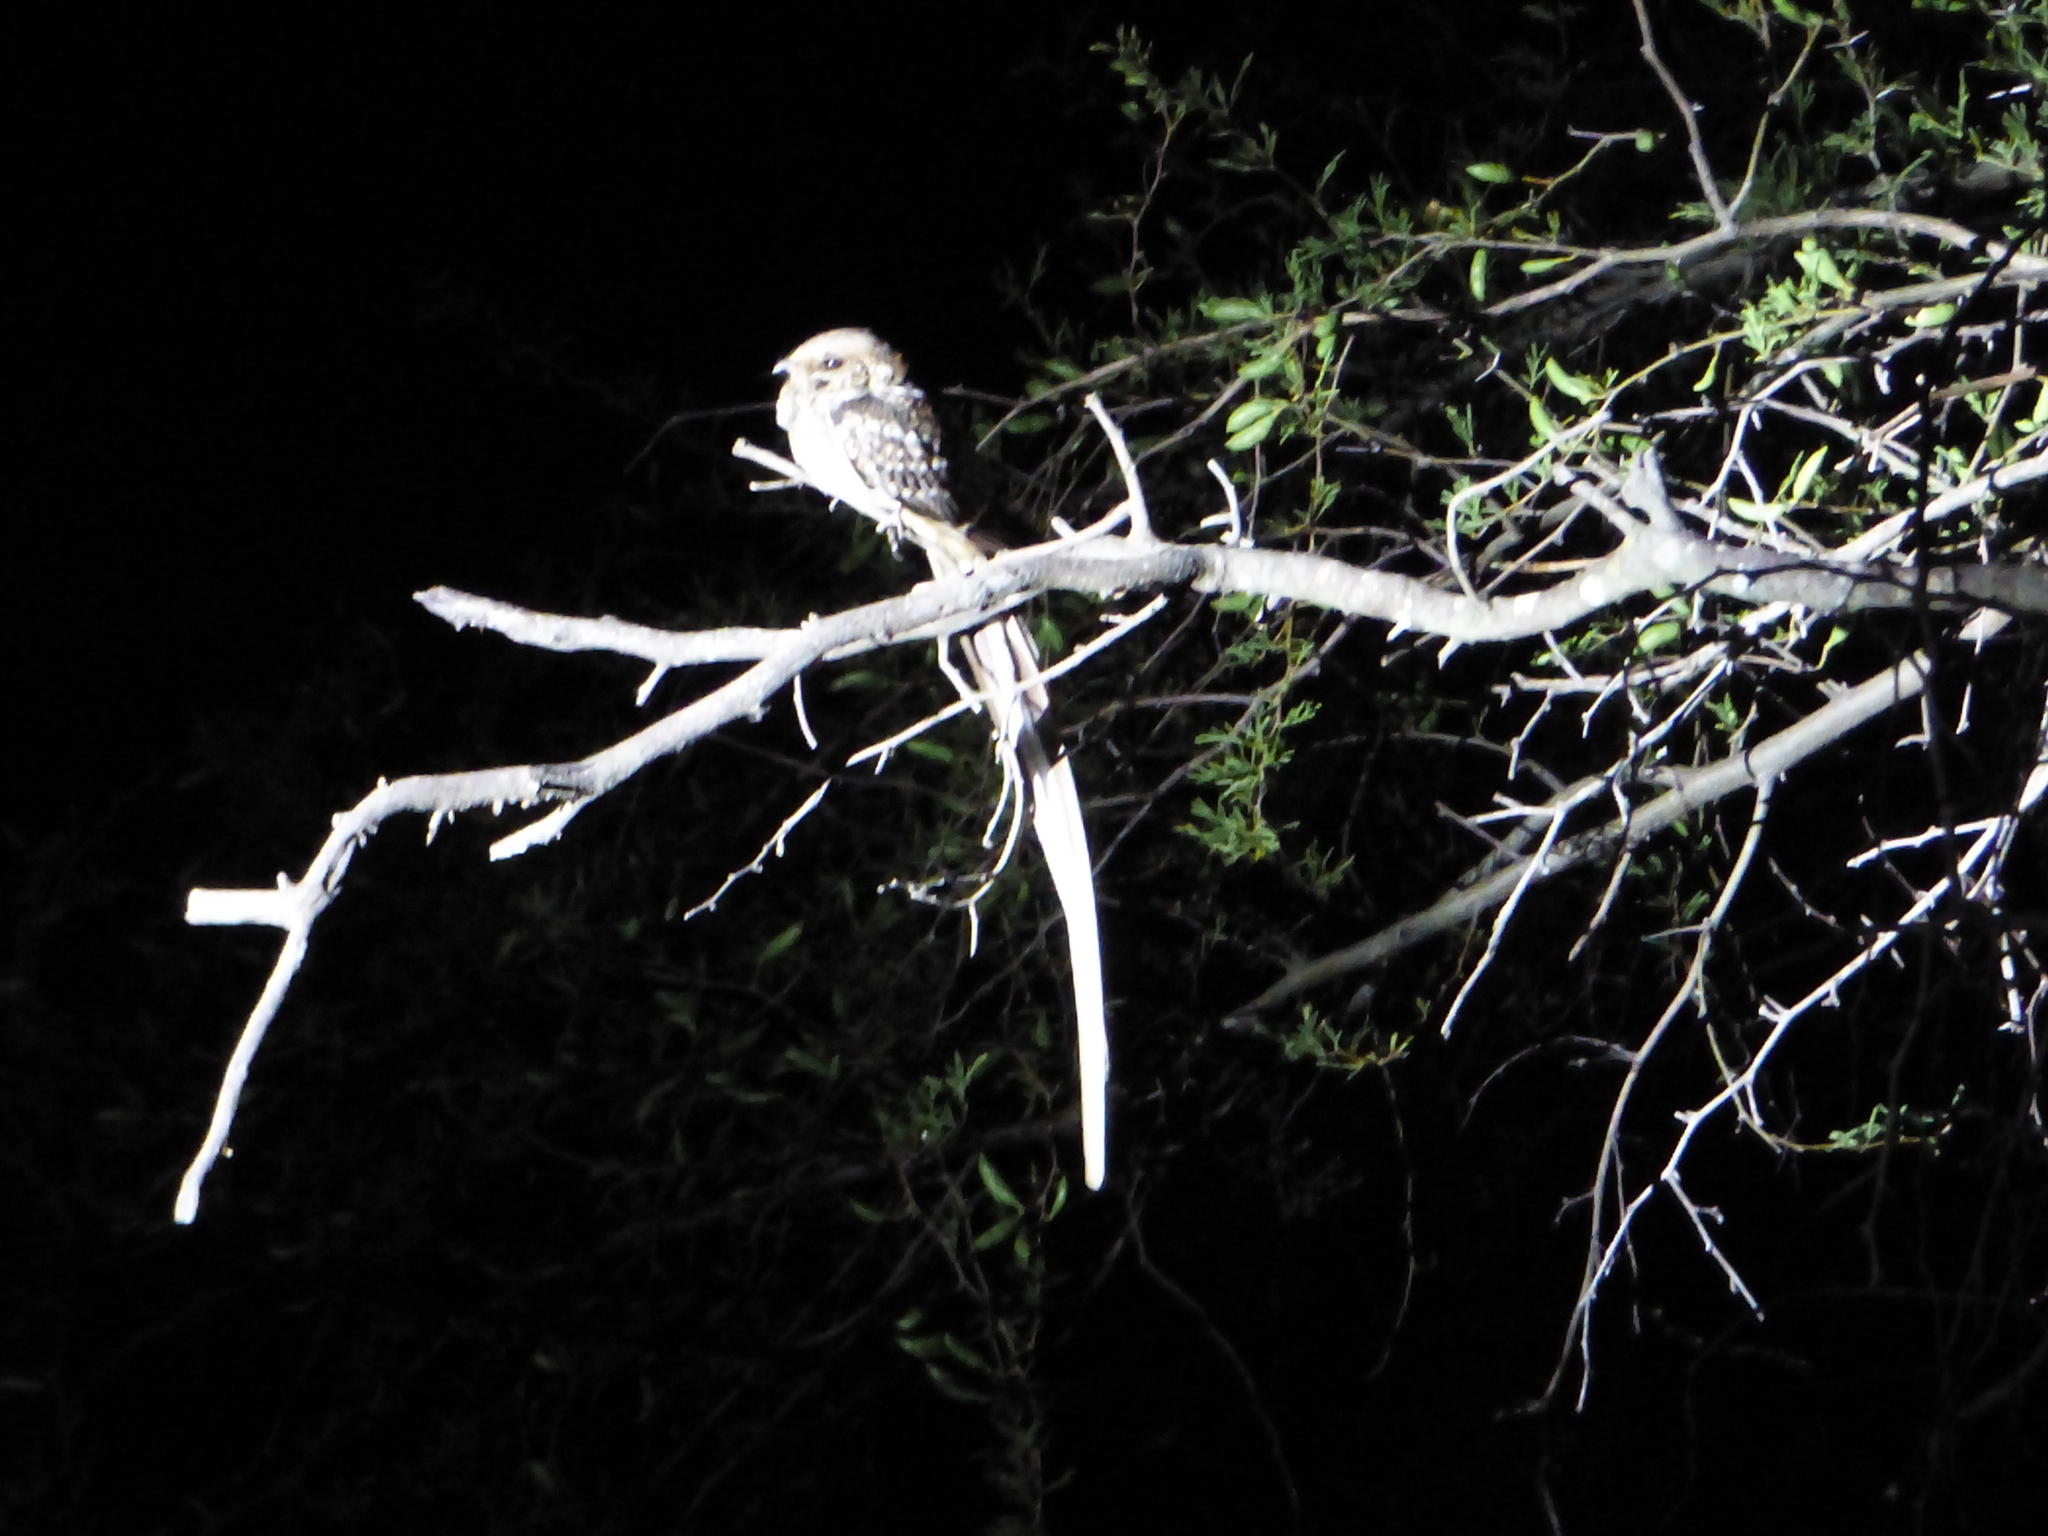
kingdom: Animalia
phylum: Chordata
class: Aves
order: Caprimulgiformes
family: Caprimulgidae
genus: Hydropsalis
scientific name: Hydropsalis torquata
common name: Scissor-tailed nightjar
